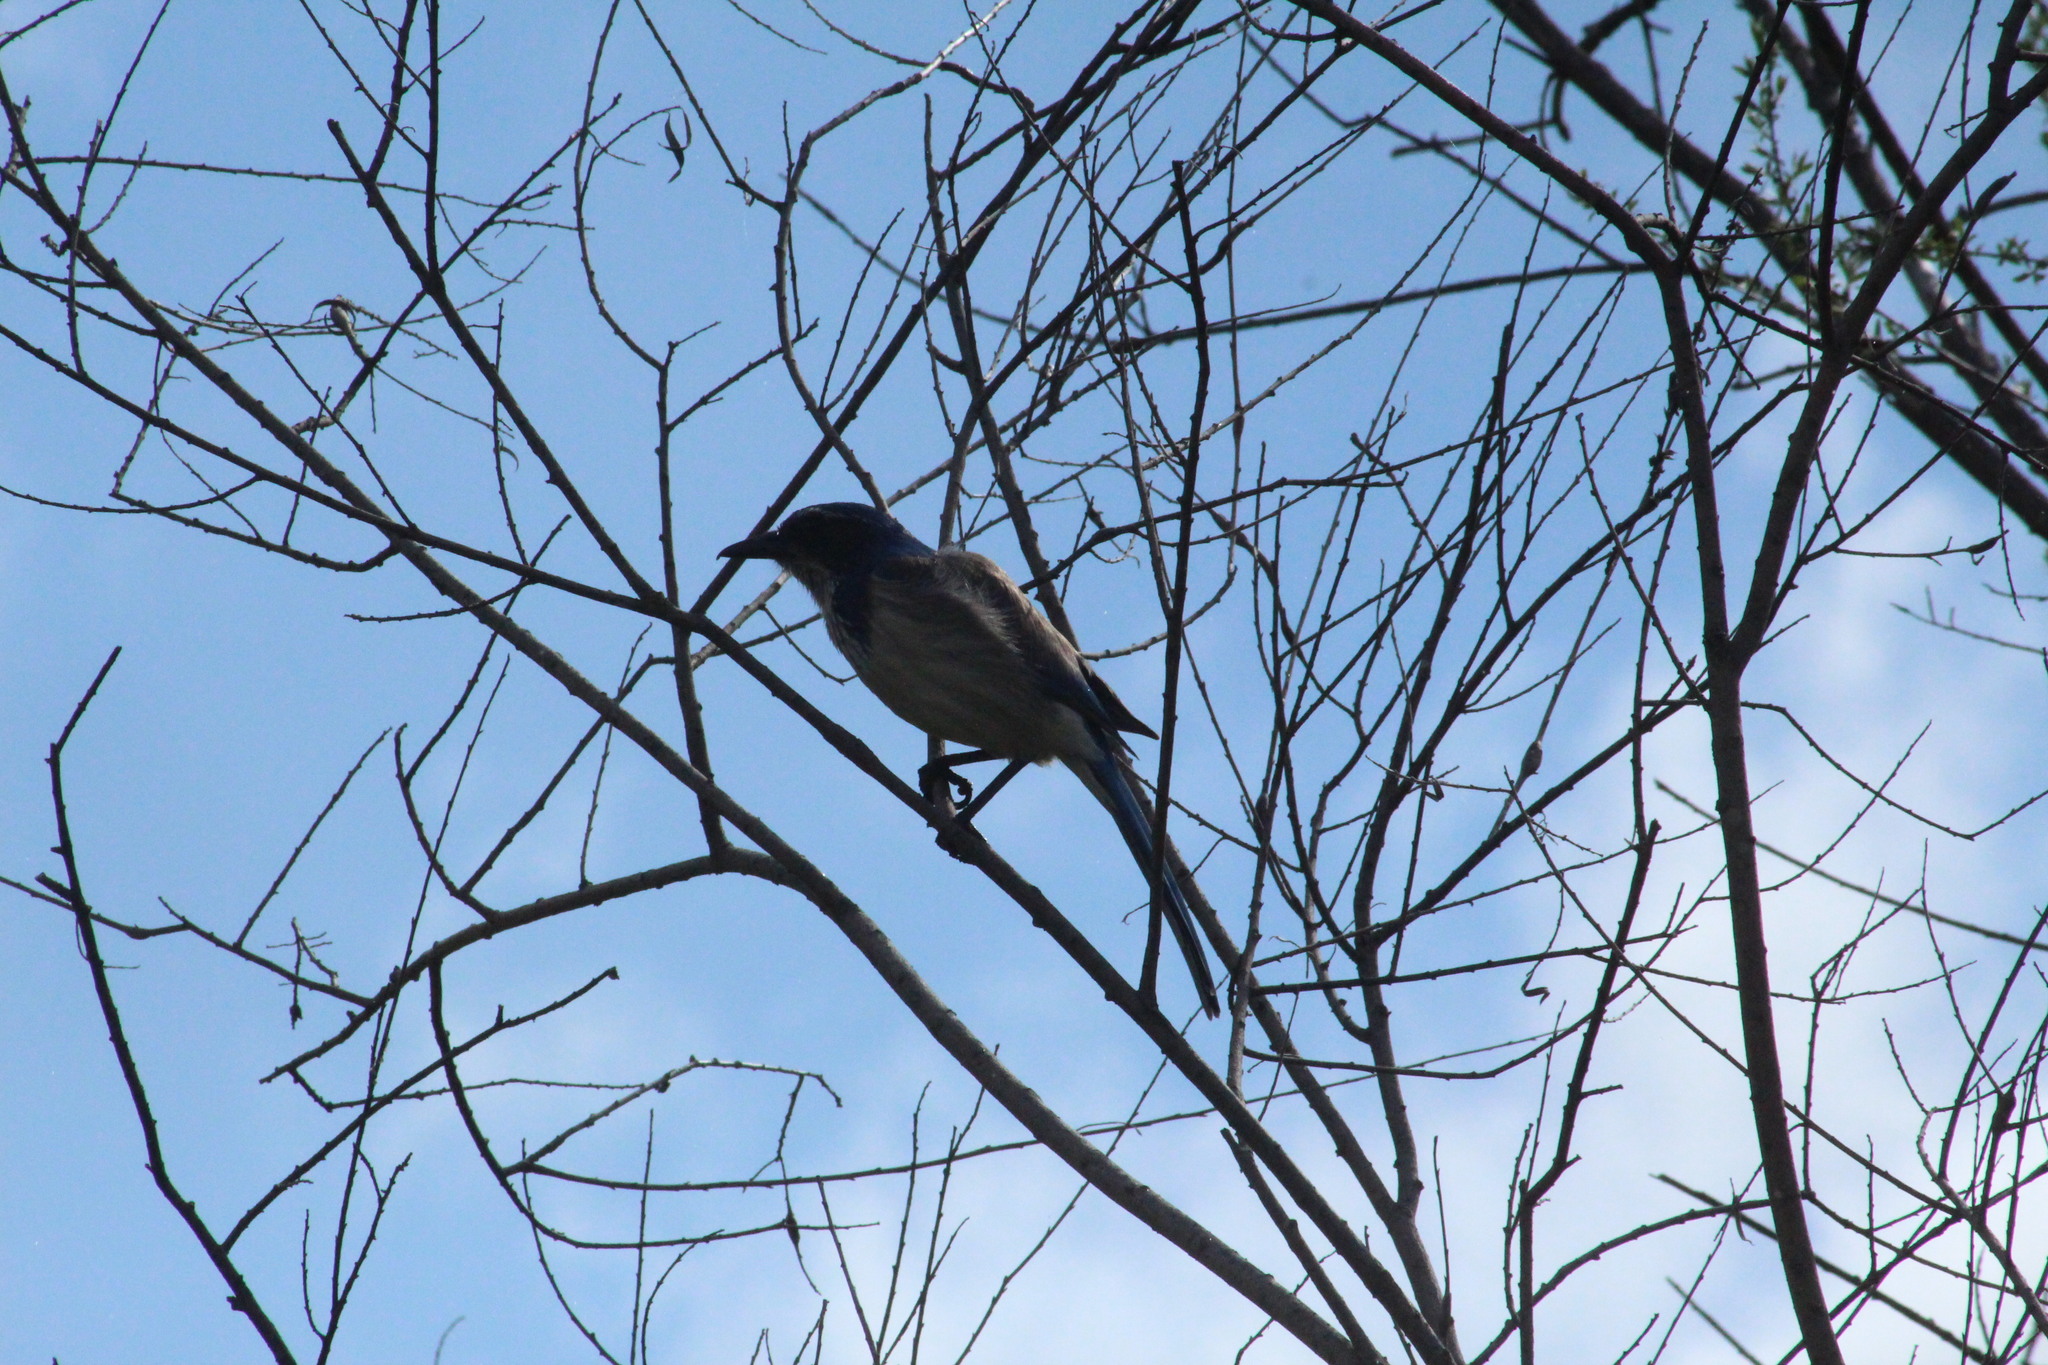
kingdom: Animalia
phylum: Chordata
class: Aves
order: Passeriformes
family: Corvidae
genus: Aphelocoma
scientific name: Aphelocoma californica
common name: California scrub-jay
